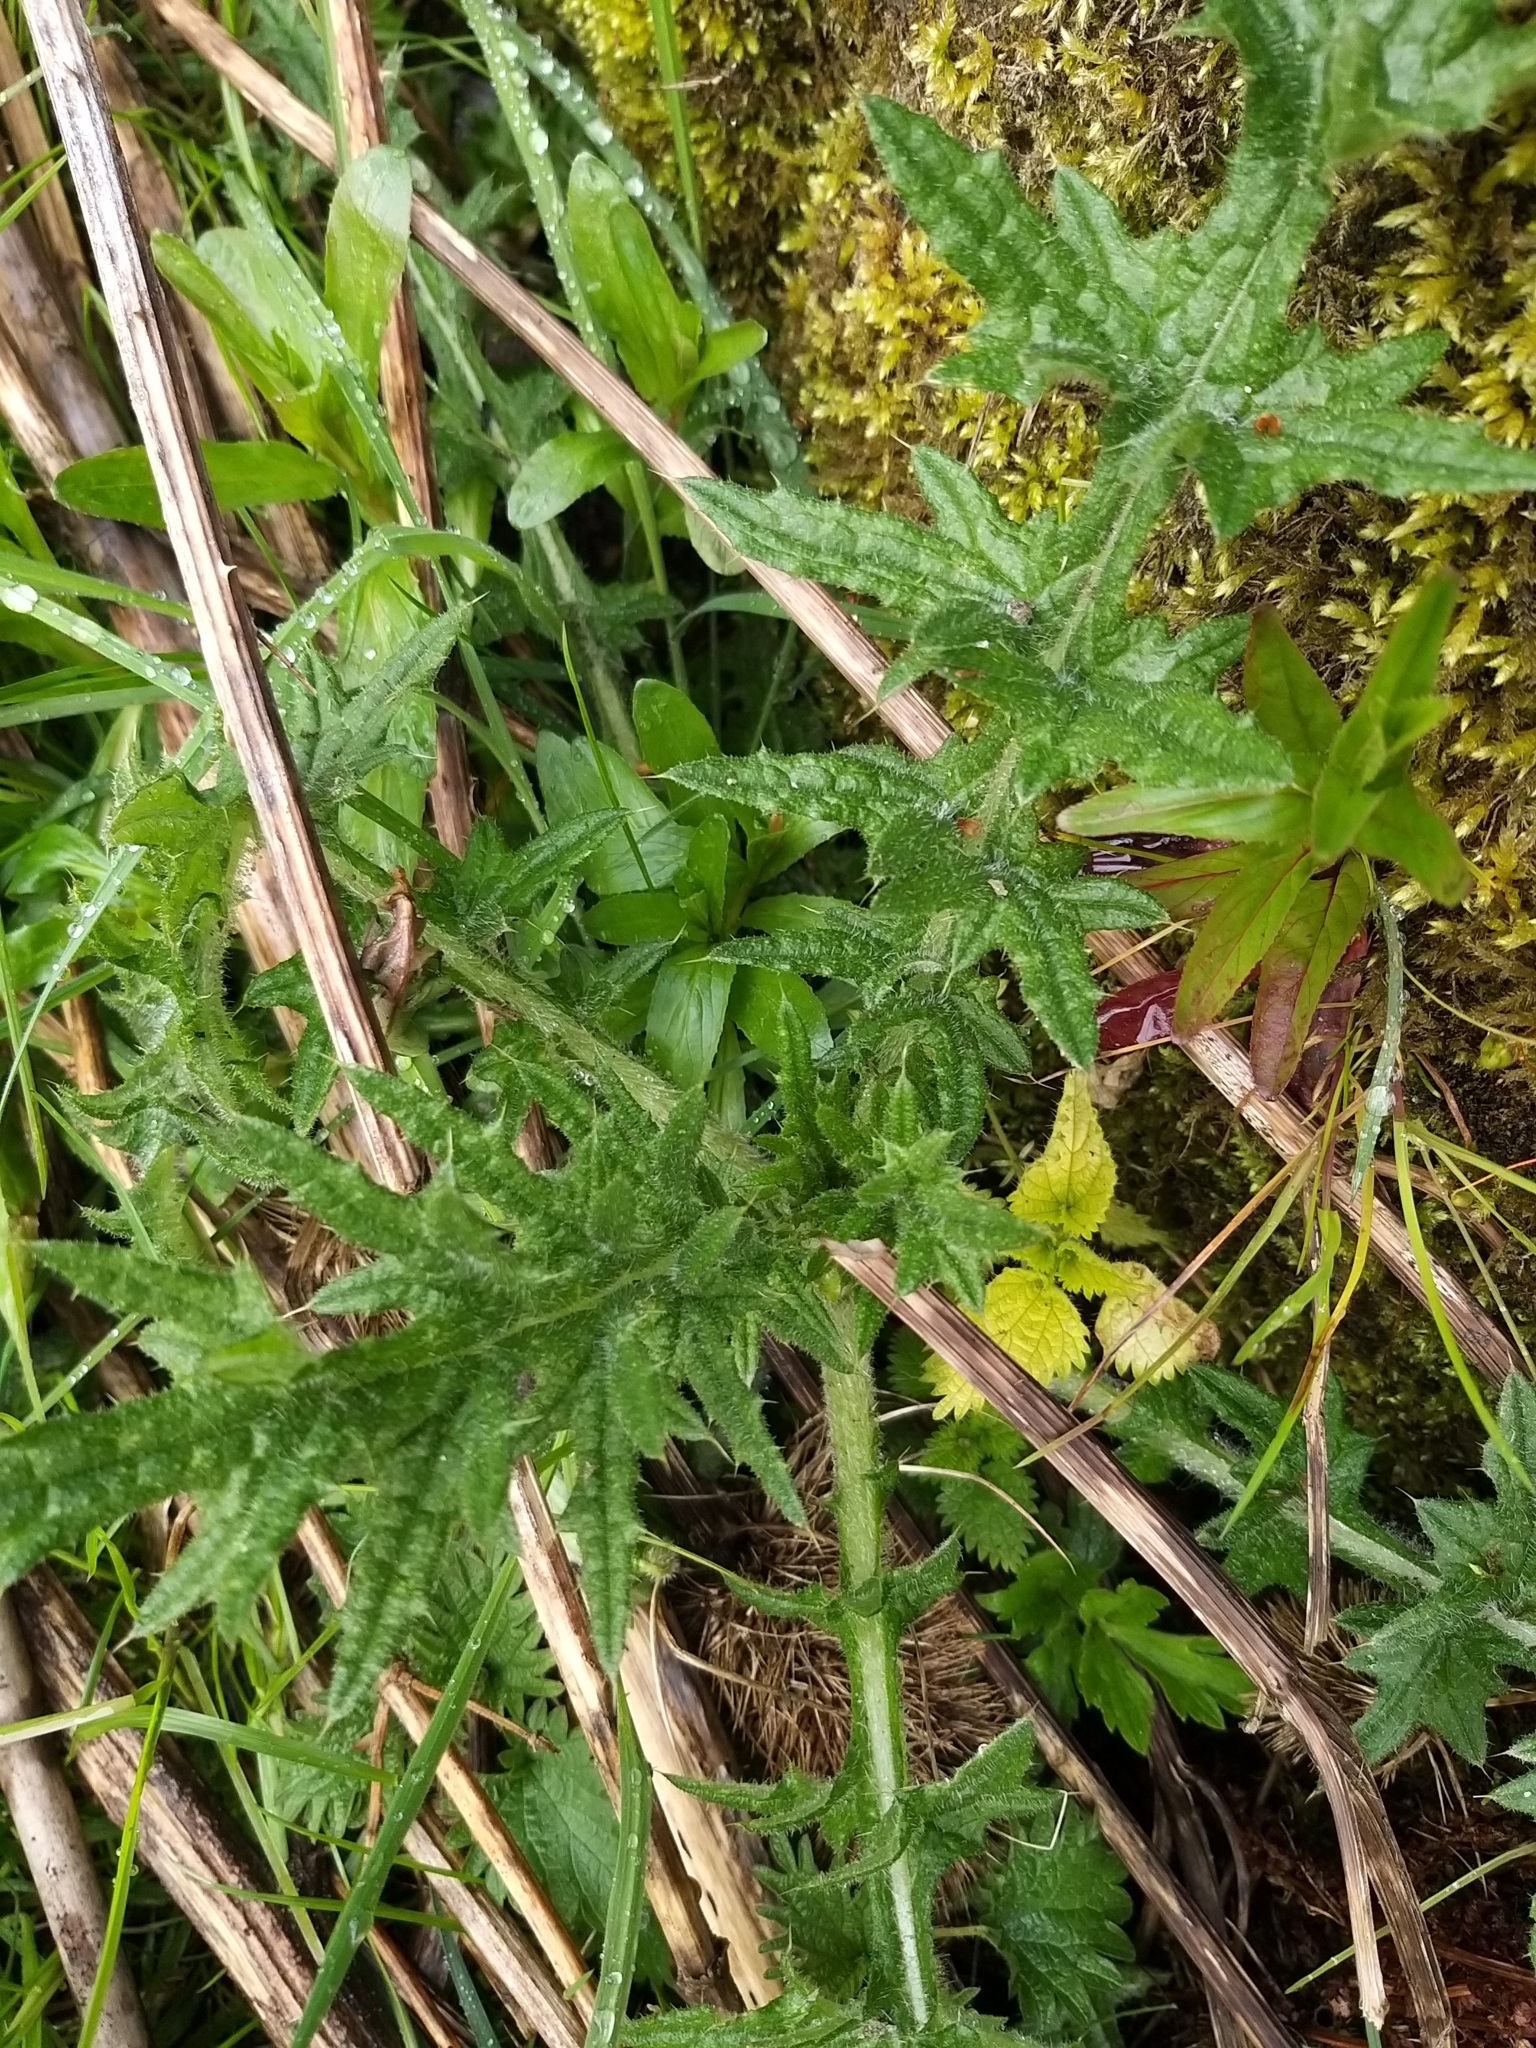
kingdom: Plantae
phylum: Tracheophyta
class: Magnoliopsida
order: Asterales
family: Asteraceae
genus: Cirsium
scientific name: Cirsium vulgare
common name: Bull thistle
